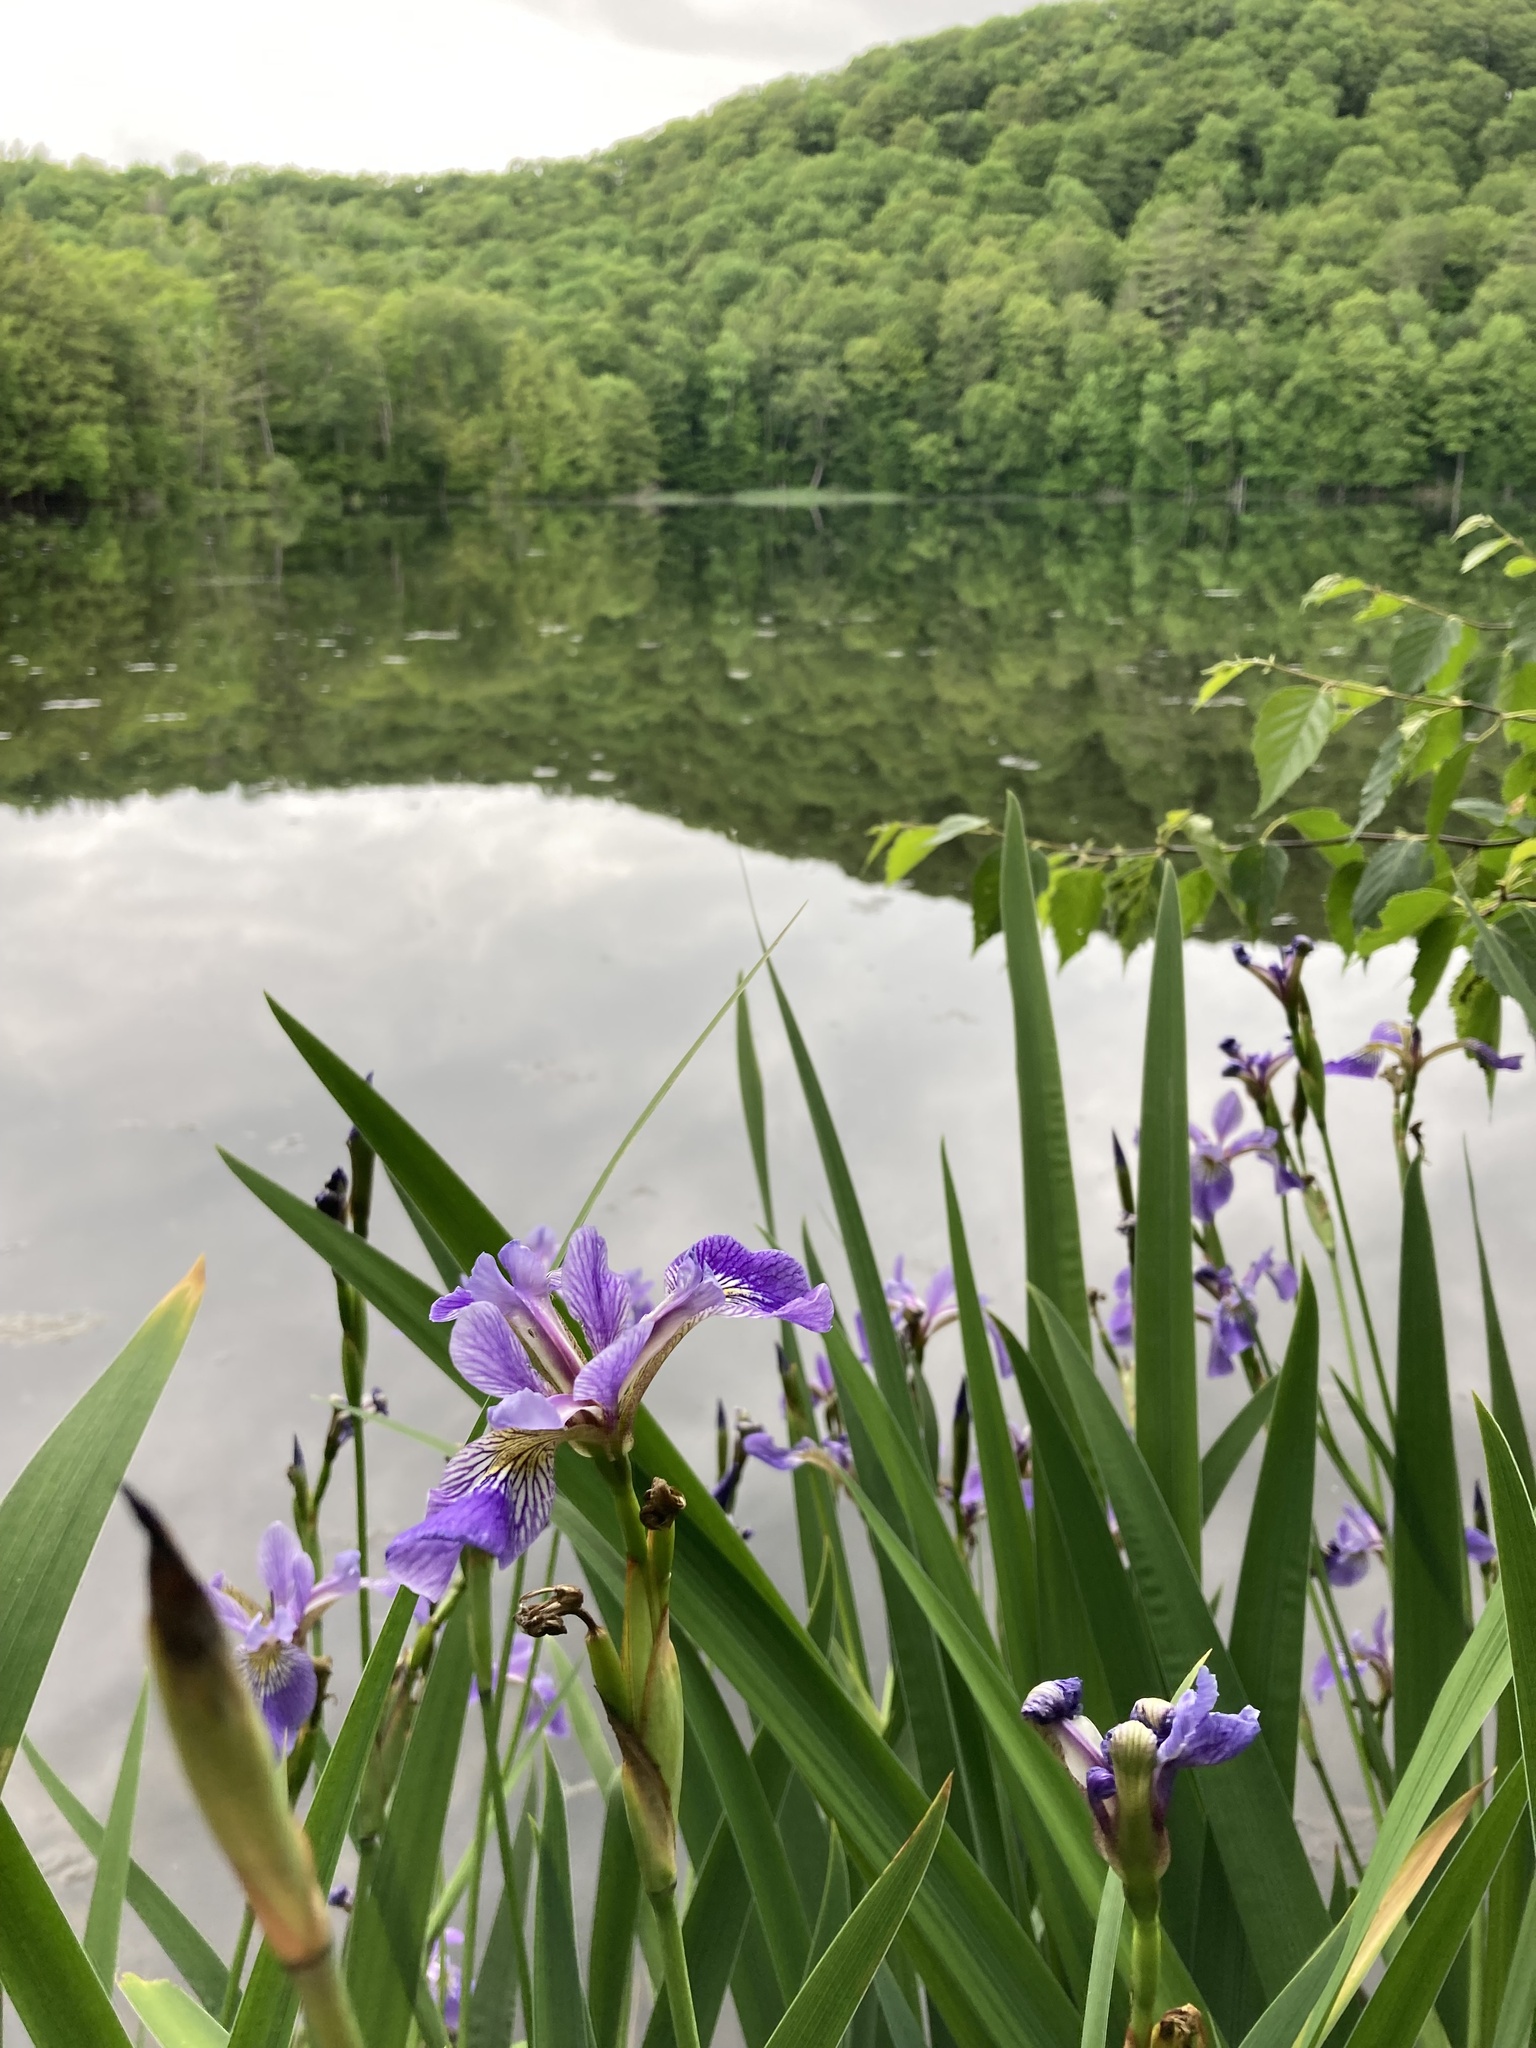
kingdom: Plantae
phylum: Tracheophyta
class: Liliopsida
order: Asparagales
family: Iridaceae
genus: Iris
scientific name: Iris versicolor
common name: Purple iris
